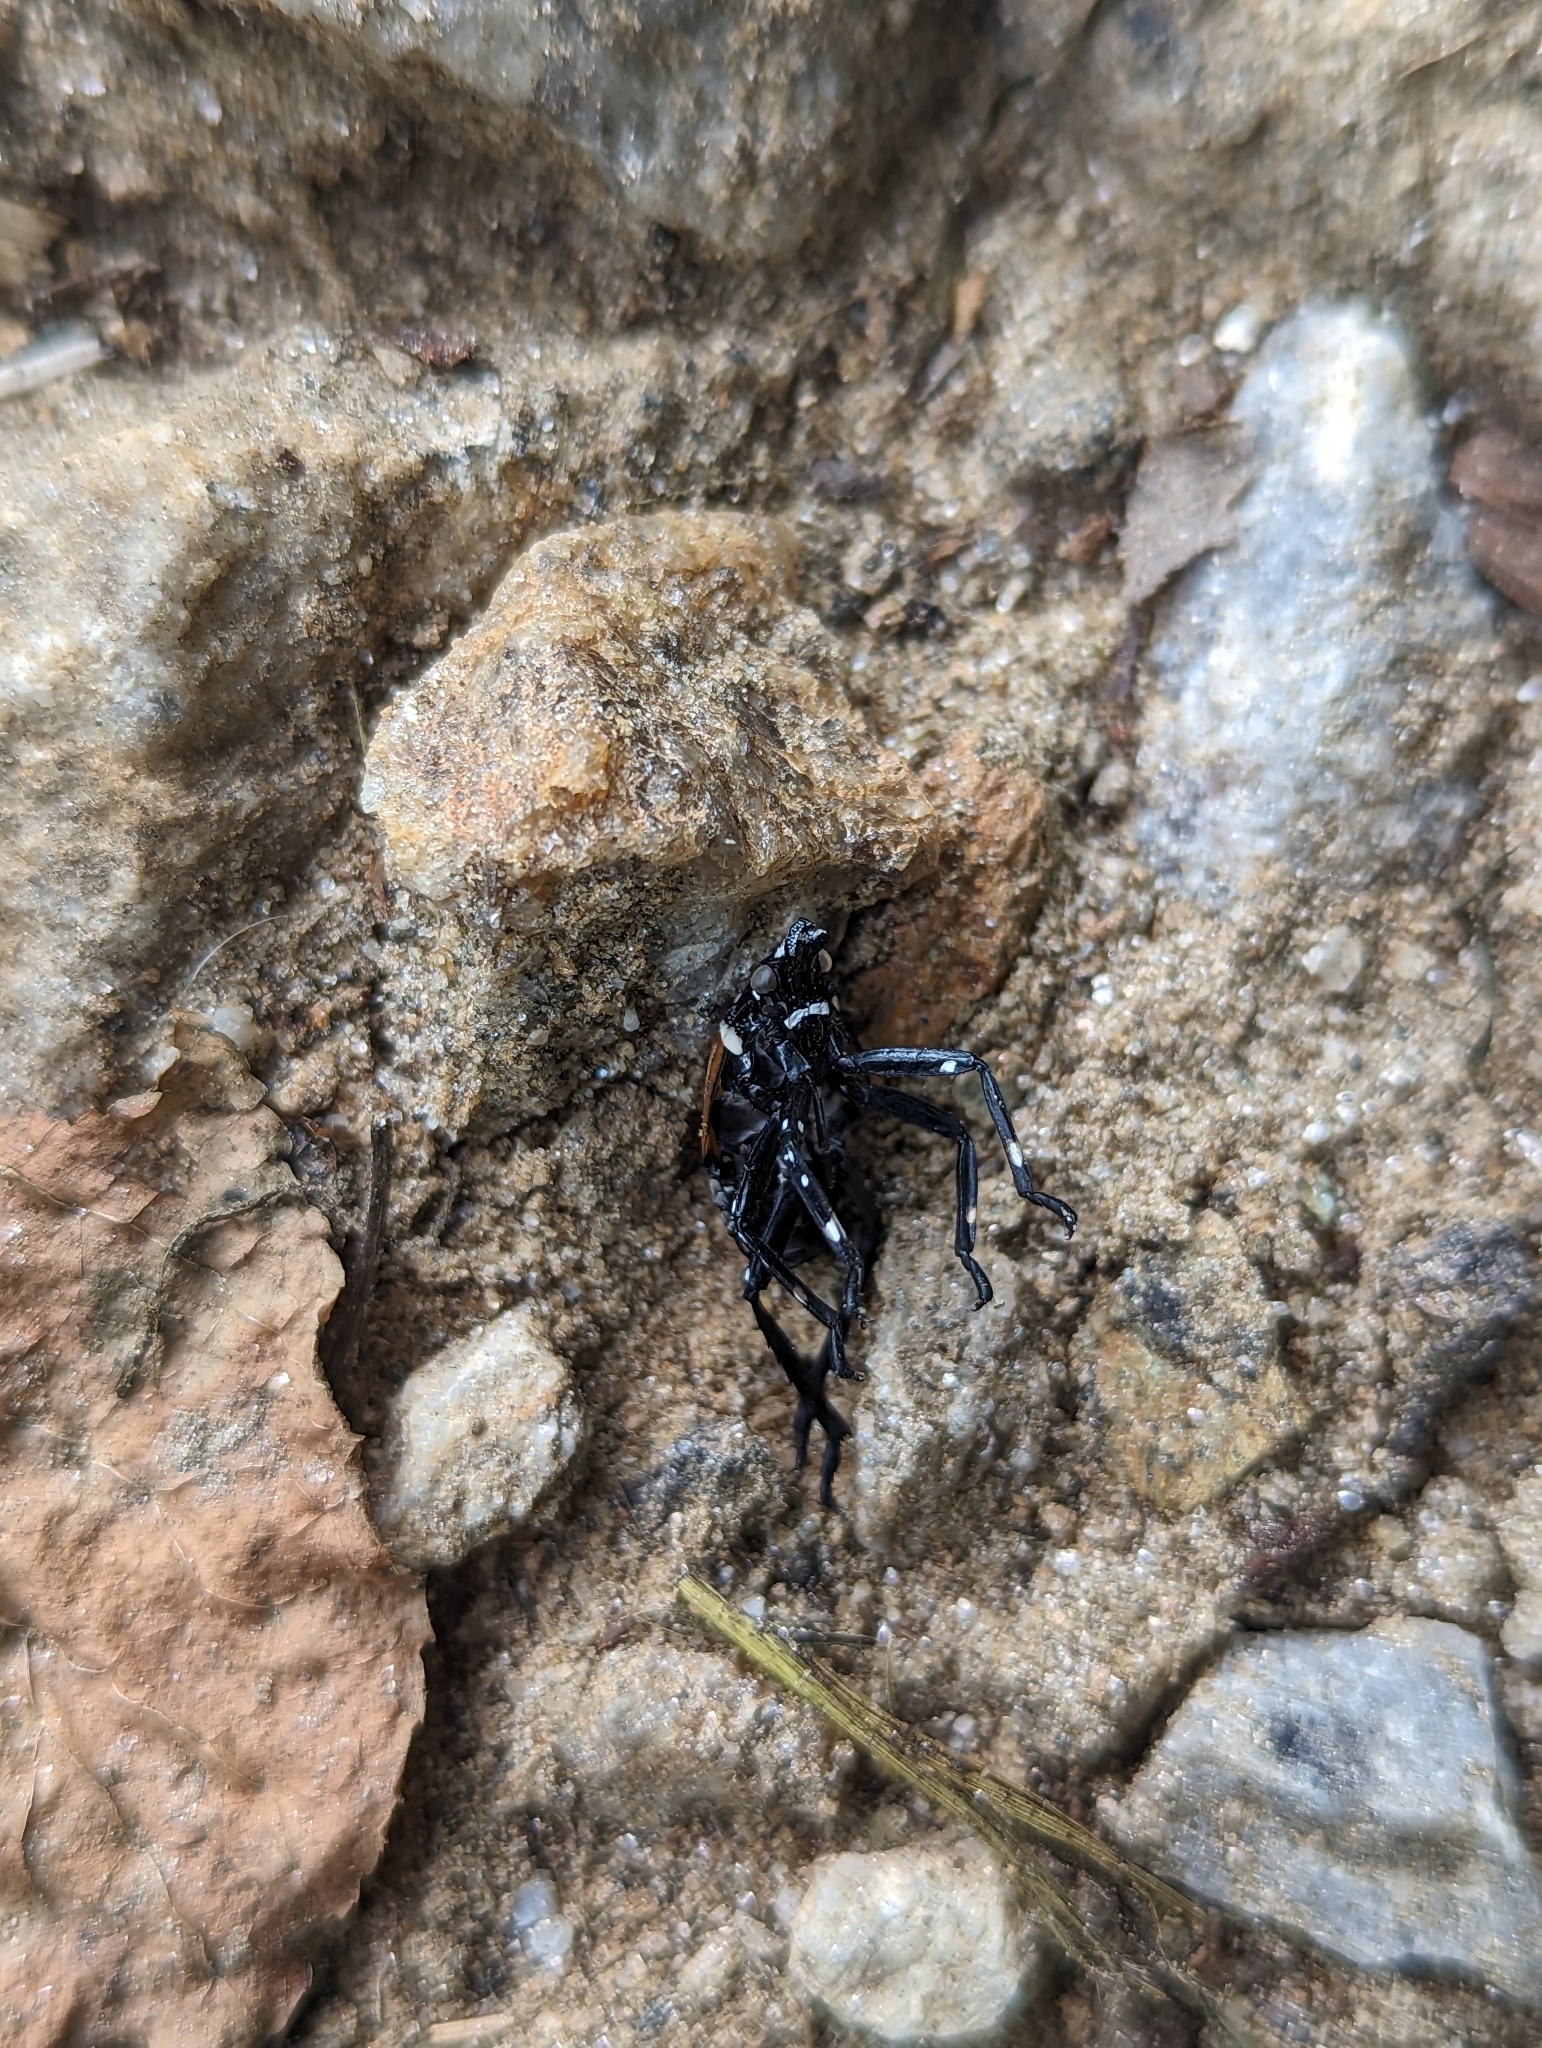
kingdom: Animalia
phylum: Arthropoda
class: Insecta
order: Hemiptera
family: Fulgoridae
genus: Lycorma
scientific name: Lycorma delicatula
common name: Spotted lanternfly
